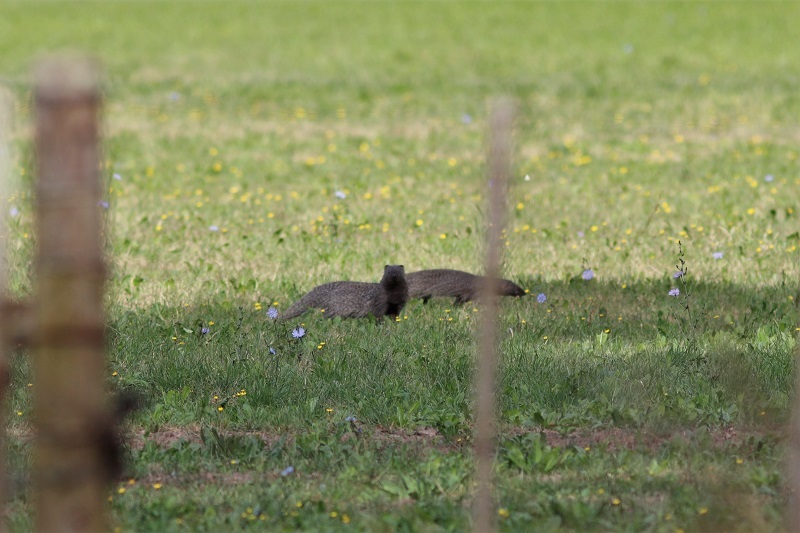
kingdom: Animalia
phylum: Chordata
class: Mammalia
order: Carnivora
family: Herpestidae
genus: Herpestes
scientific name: Herpestes ichneumon
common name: Egyptian mongoose
